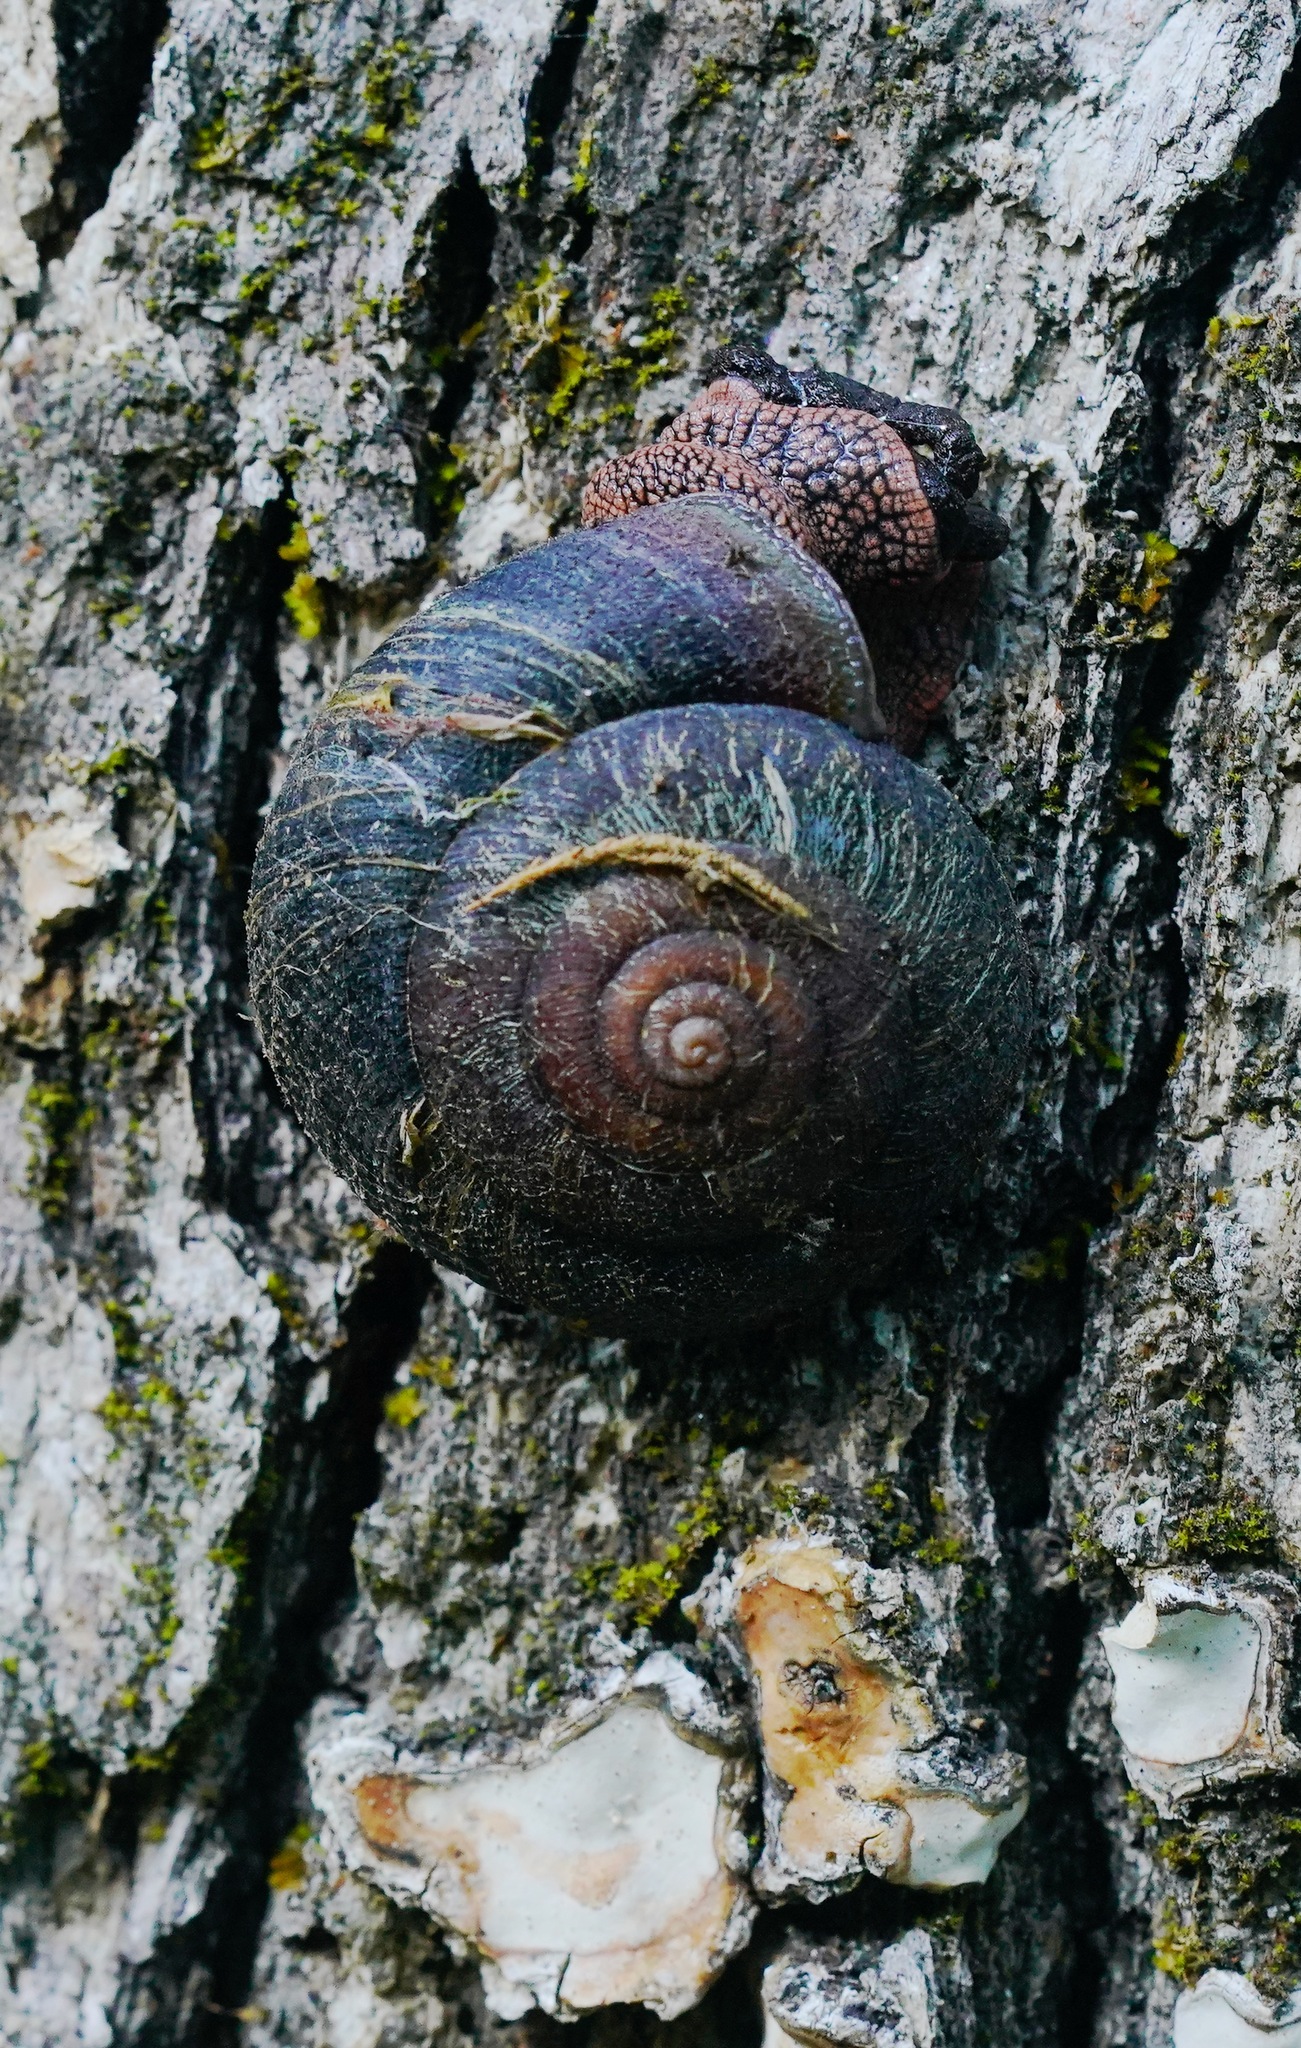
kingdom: Animalia
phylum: Mollusca
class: Gastropoda
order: Stylommatophora
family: Xanthonychidae
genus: Monadenia
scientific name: Monadenia infumata
